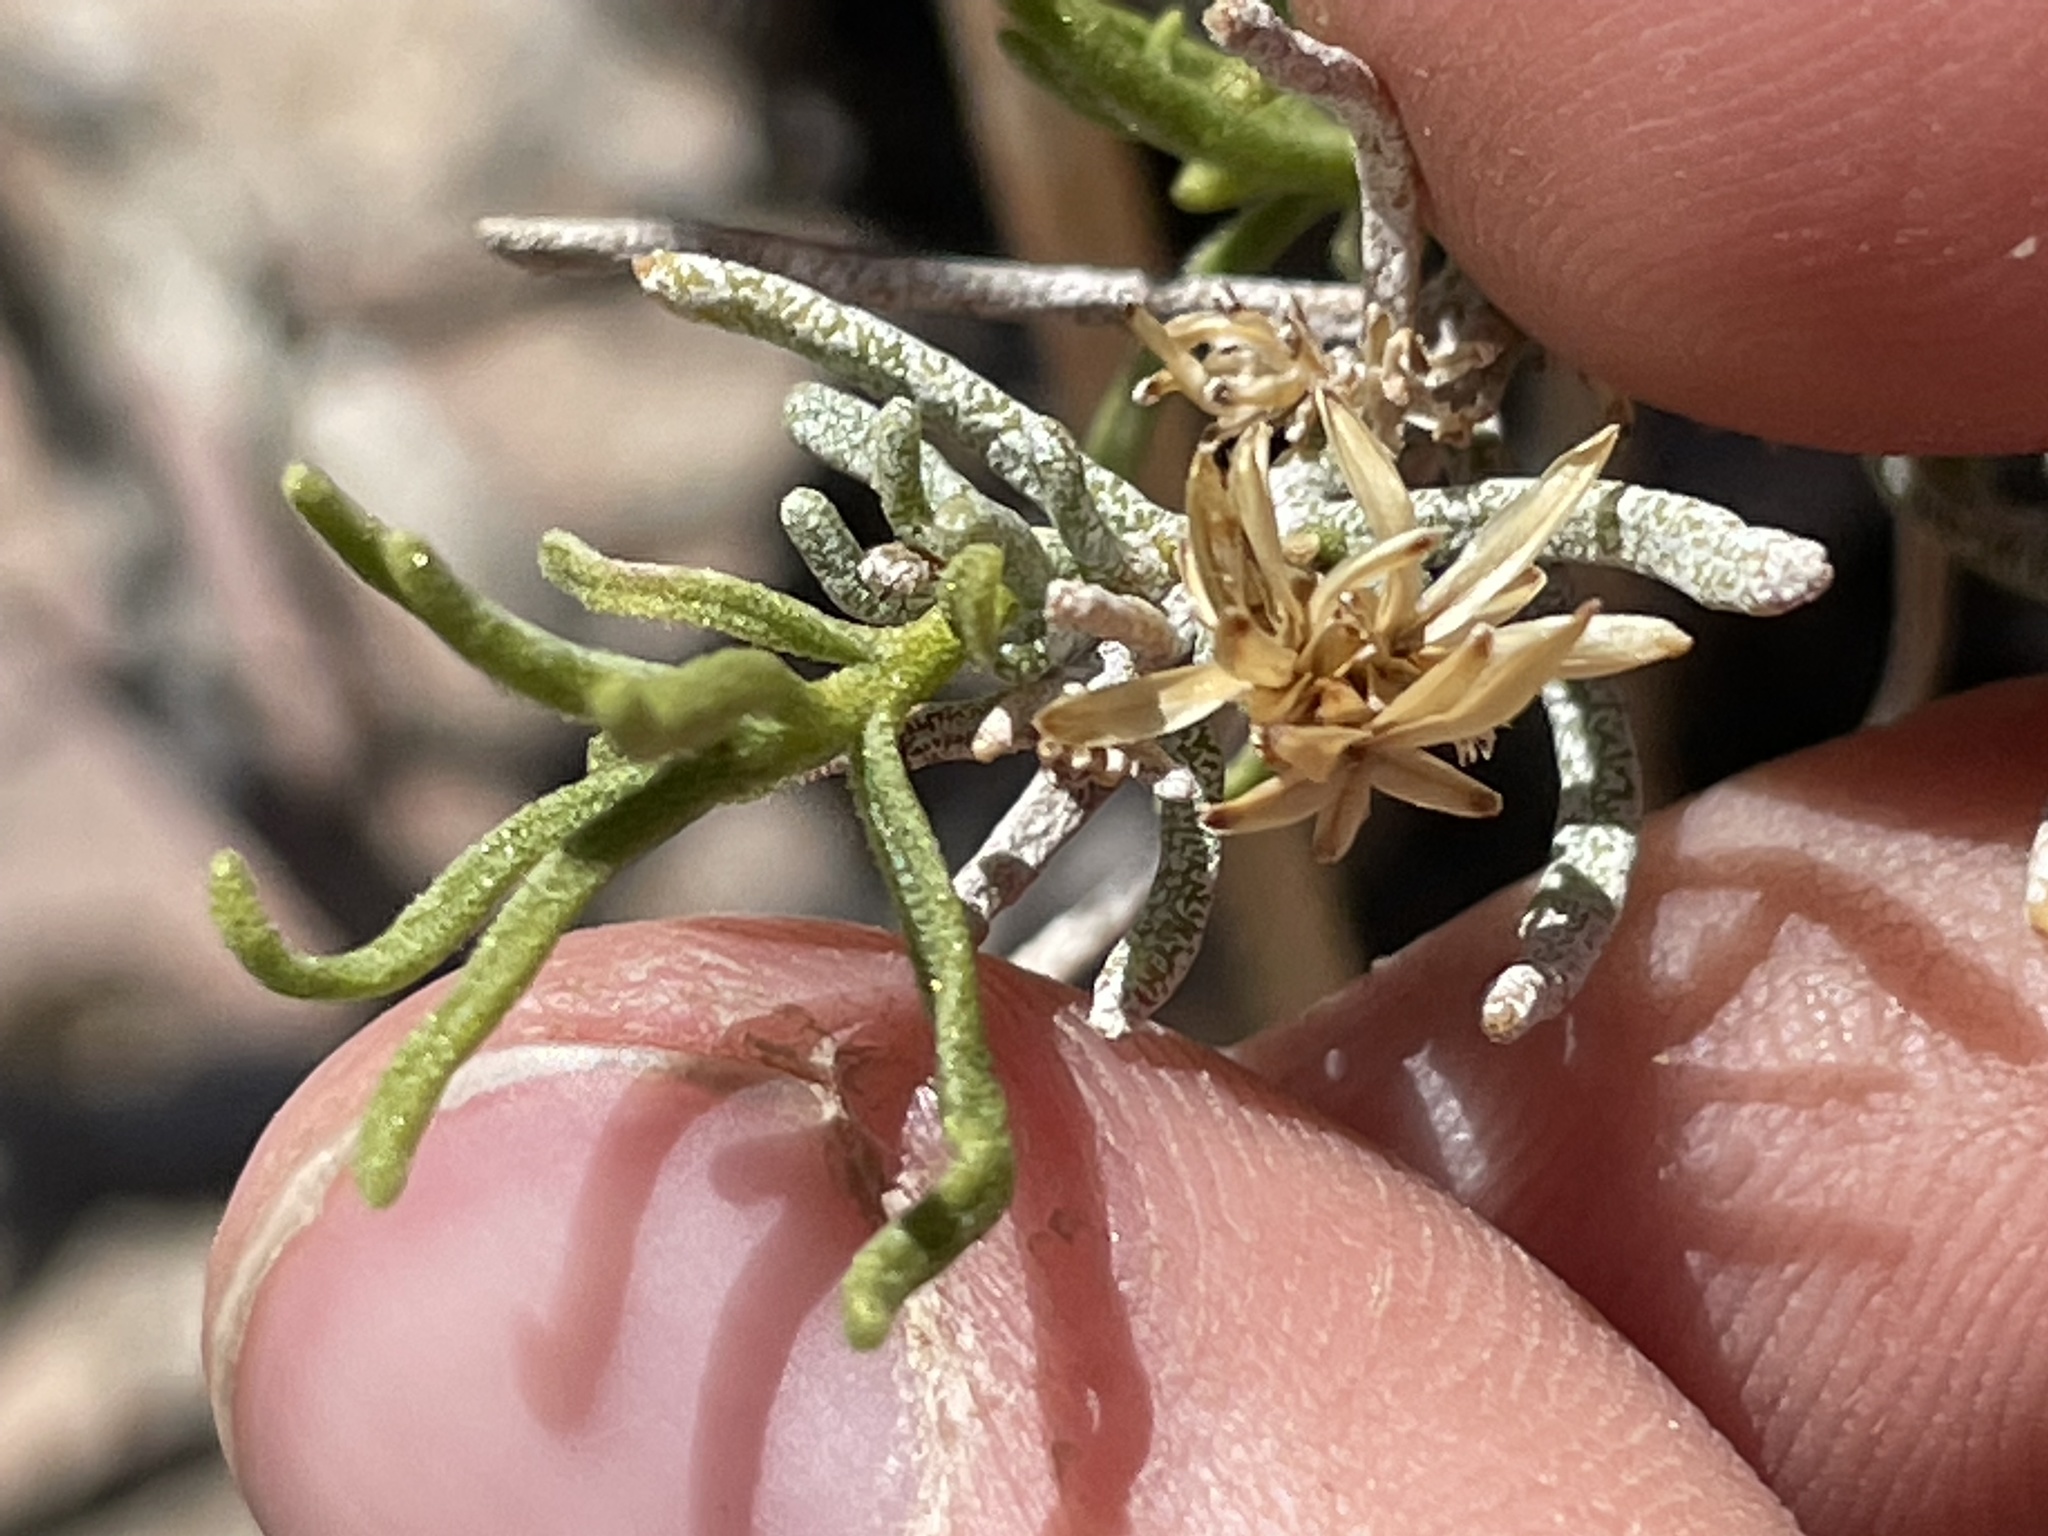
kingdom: Plantae
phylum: Tracheophyta
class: Magnoliopsida
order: Asterales
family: Asteraceae
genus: Peucephyllum
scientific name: Peucephyllum schottii
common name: Pygmy-cedar
